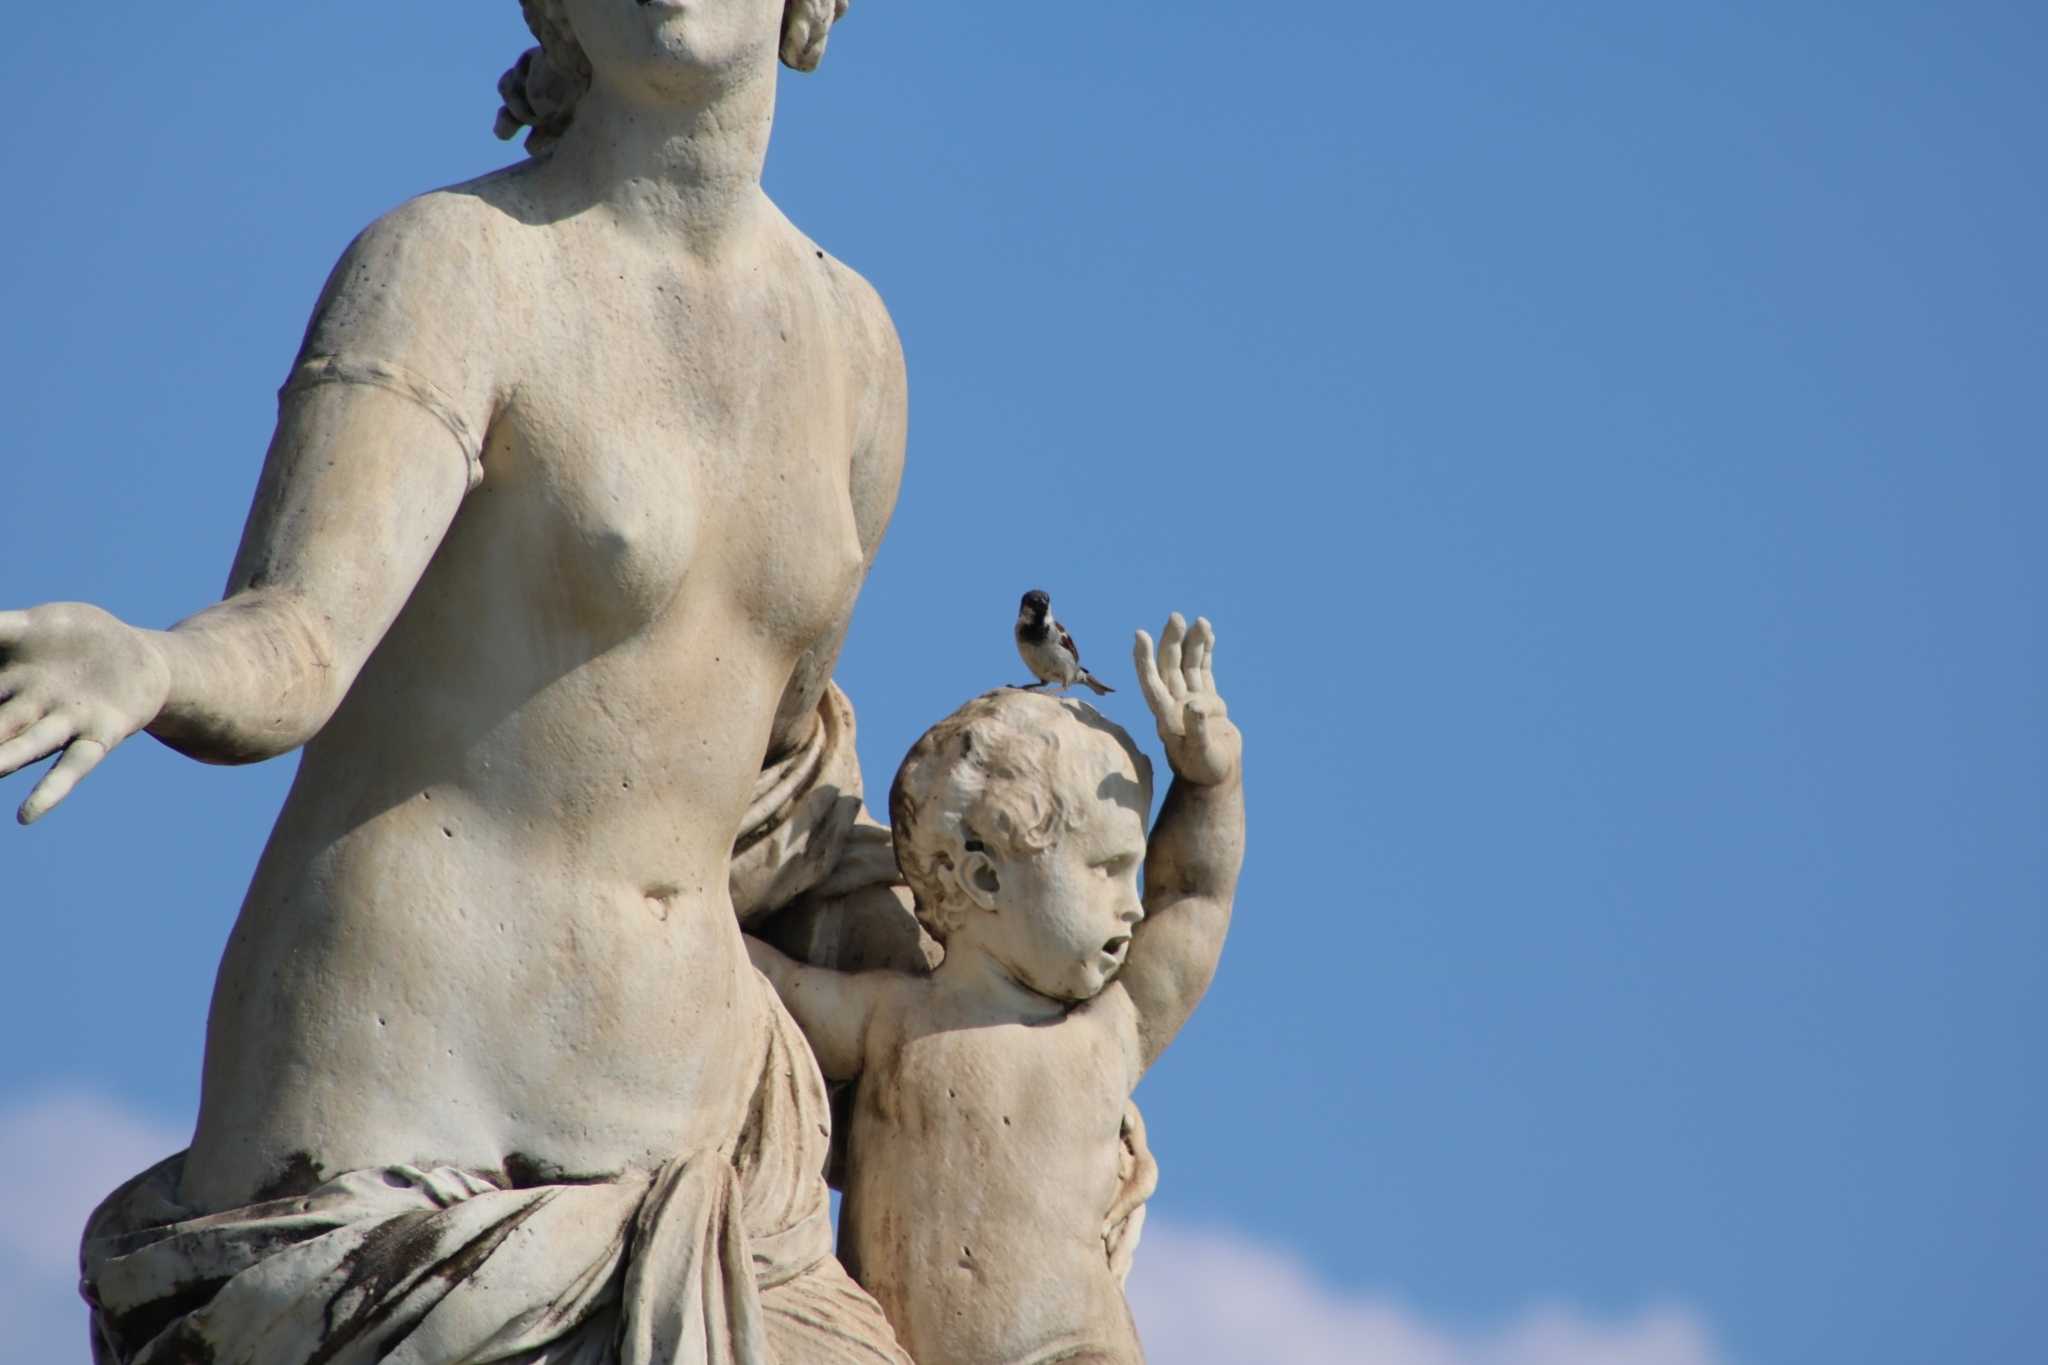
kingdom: Animalia
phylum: Chordata
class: Aves
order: Passeriformes
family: Passeridae
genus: Passer
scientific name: Passer domesticus
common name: House sparrow
